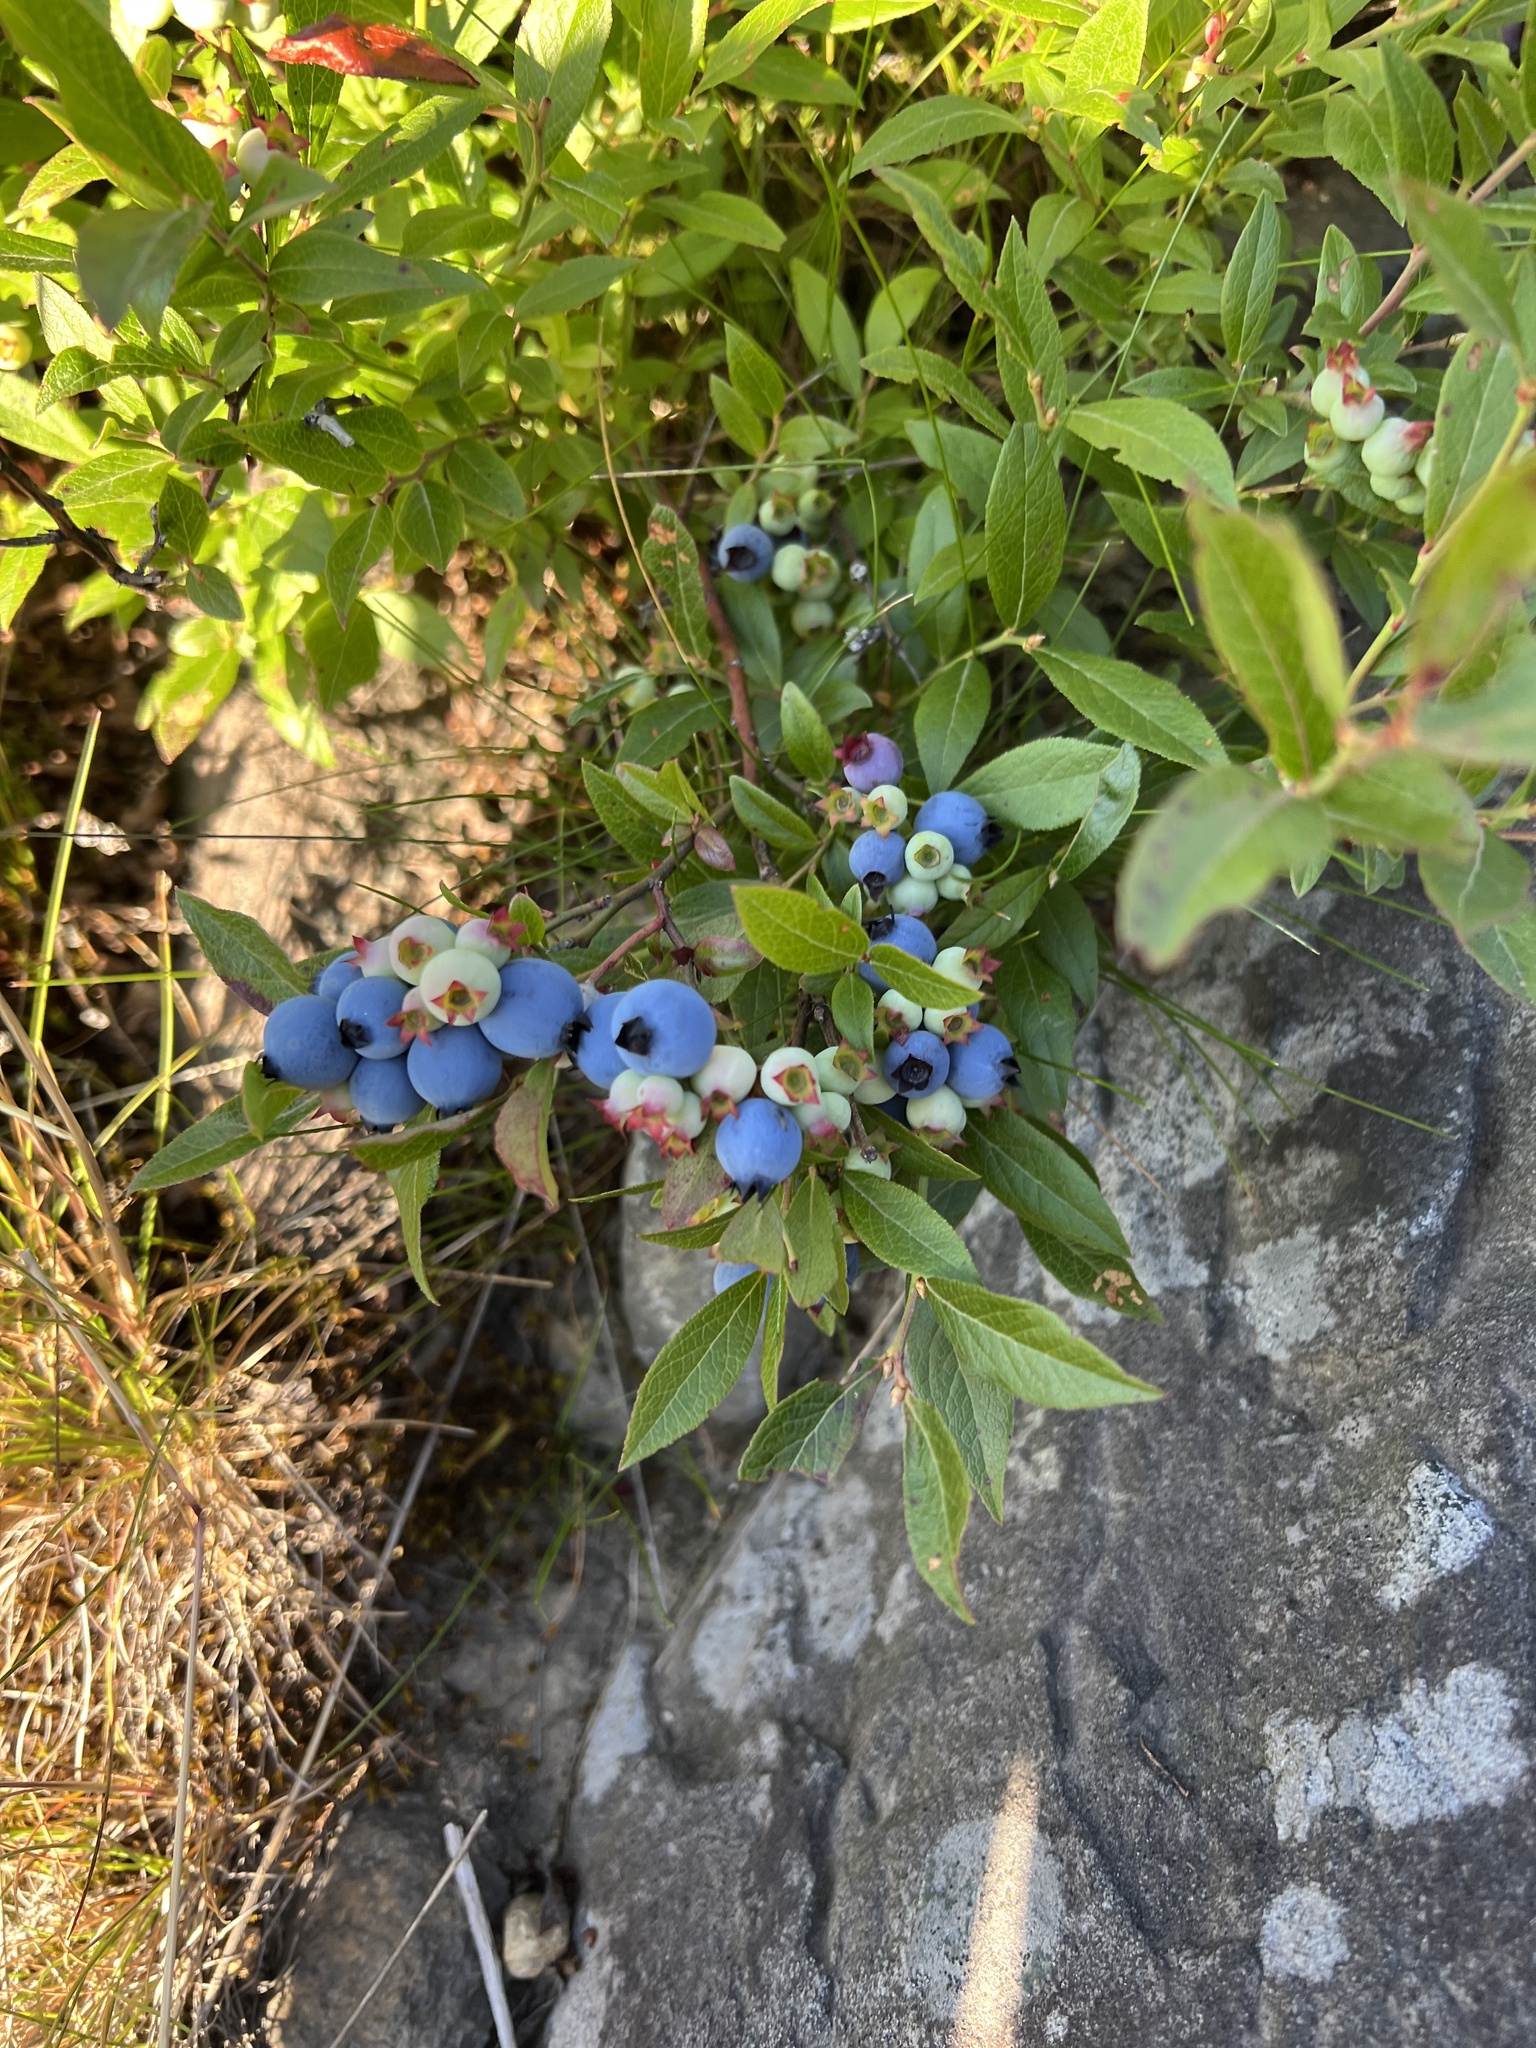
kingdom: Plantae
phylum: Tracheophyta
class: Magnoliopsida
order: Ericales
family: Ericaceae
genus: Vaccinium
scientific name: Vaccinium angustifolium
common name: Early lowbush blueberry
